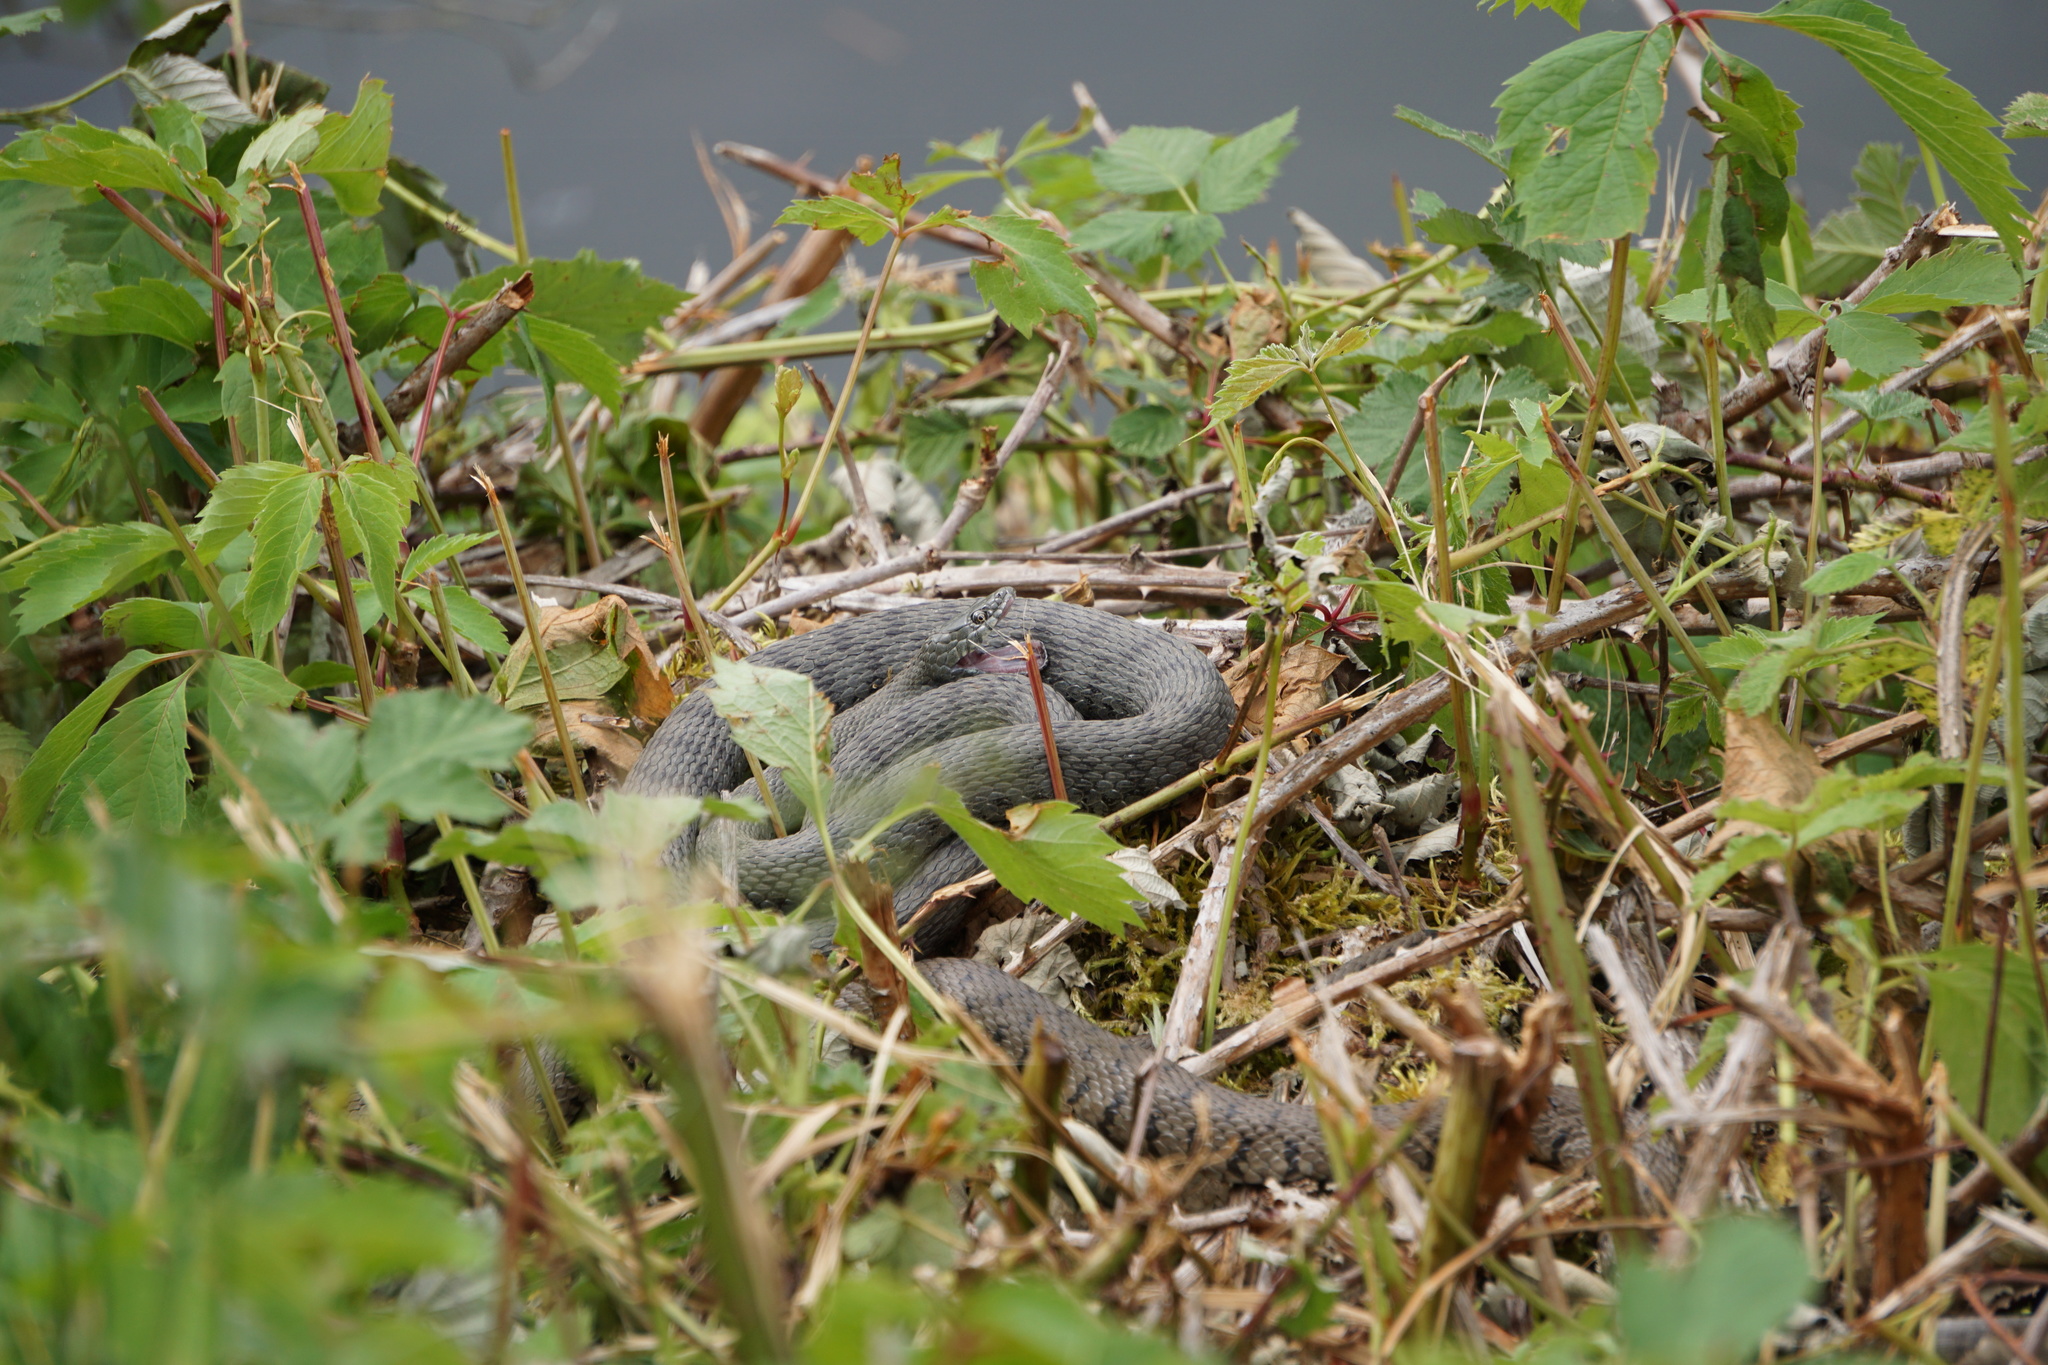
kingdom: Animalia
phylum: Chordata
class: Squamata
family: Colubridae
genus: Natrix
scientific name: Natrix tessellata
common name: Dice snake
